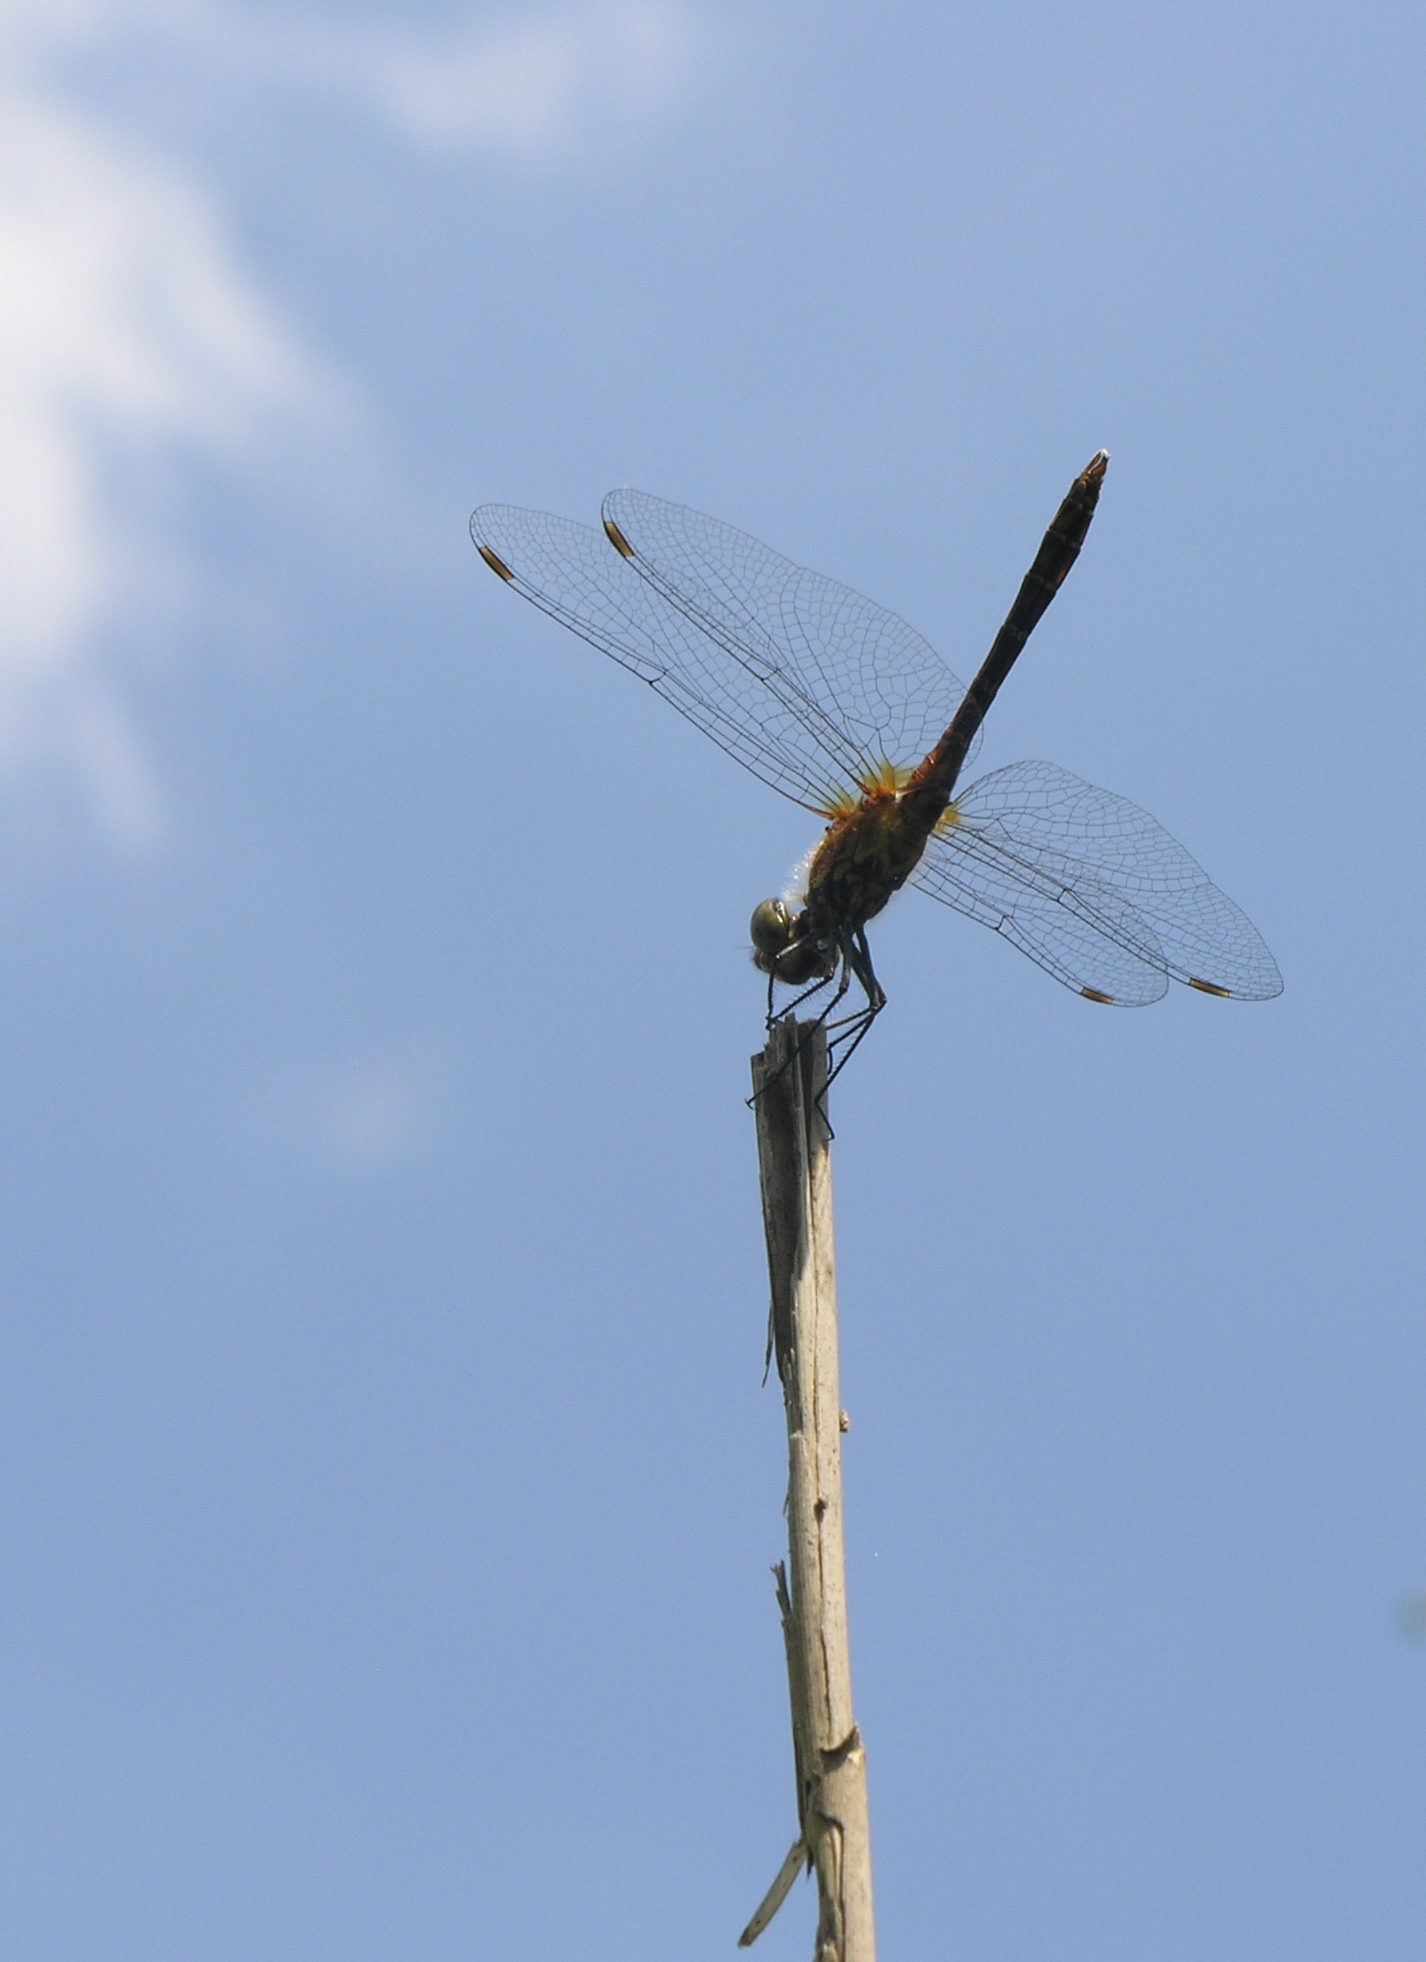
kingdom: Animalia
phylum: Arthropoda
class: Insecta
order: Odonata
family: Libellulidae
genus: Sympetrum
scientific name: Sympetrum sanguineum
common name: Ruddy darter
